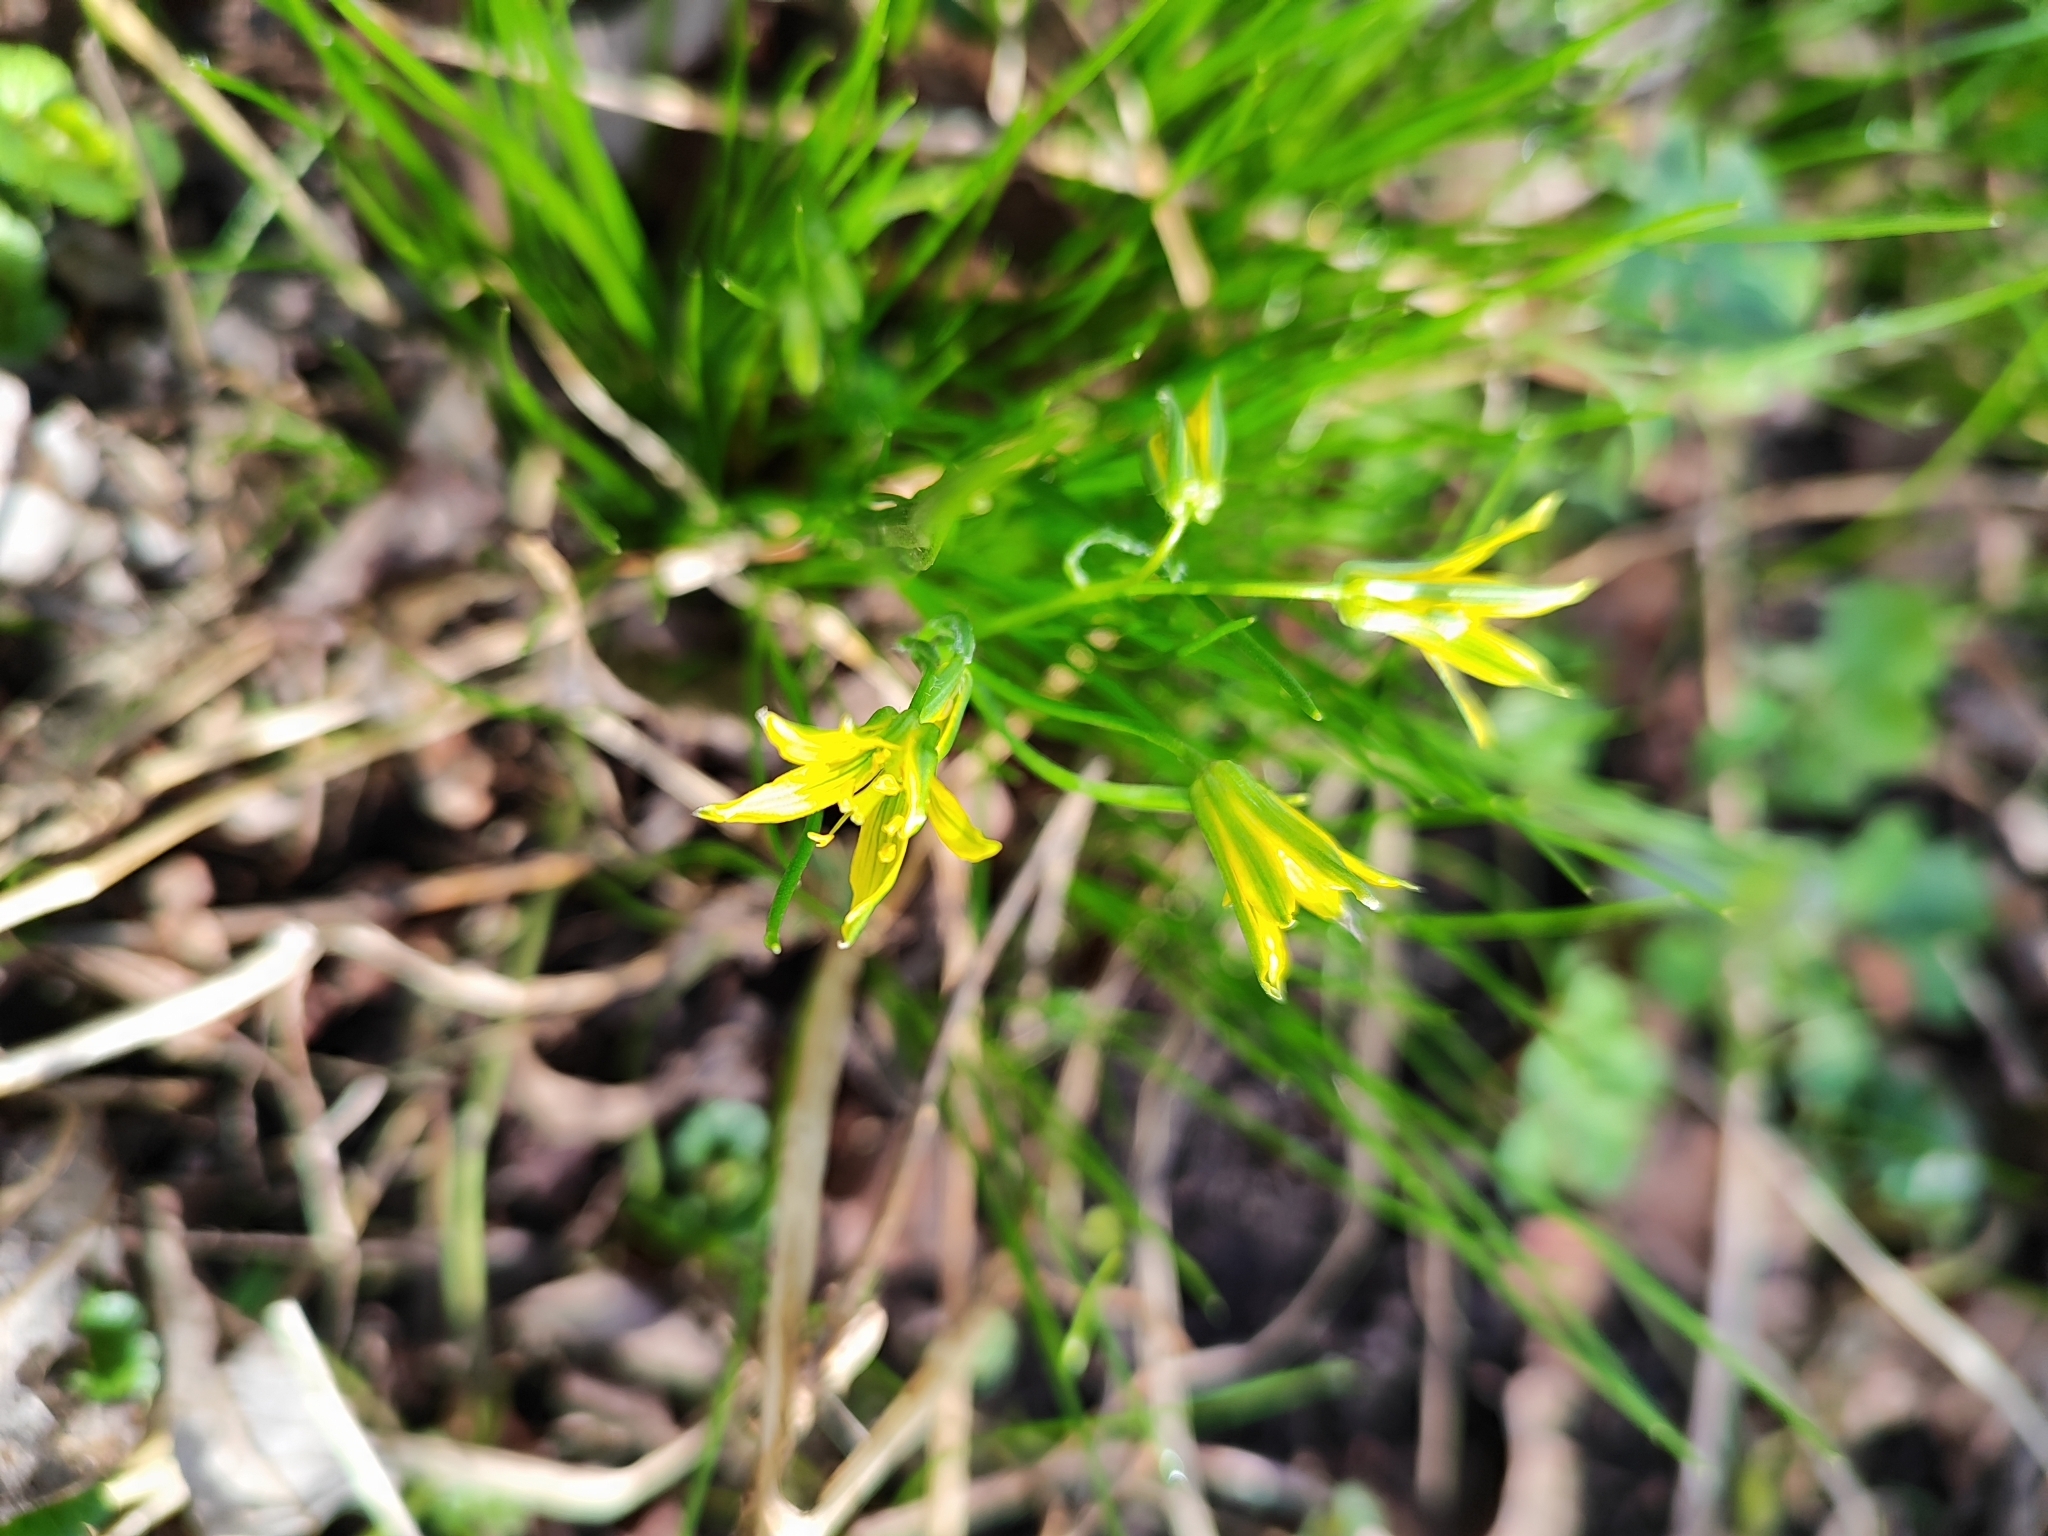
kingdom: Plantae
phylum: Tracheophyta
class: Liliopsida
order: Liliales
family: Liliaceae
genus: Gagea
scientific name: Gagea minima
